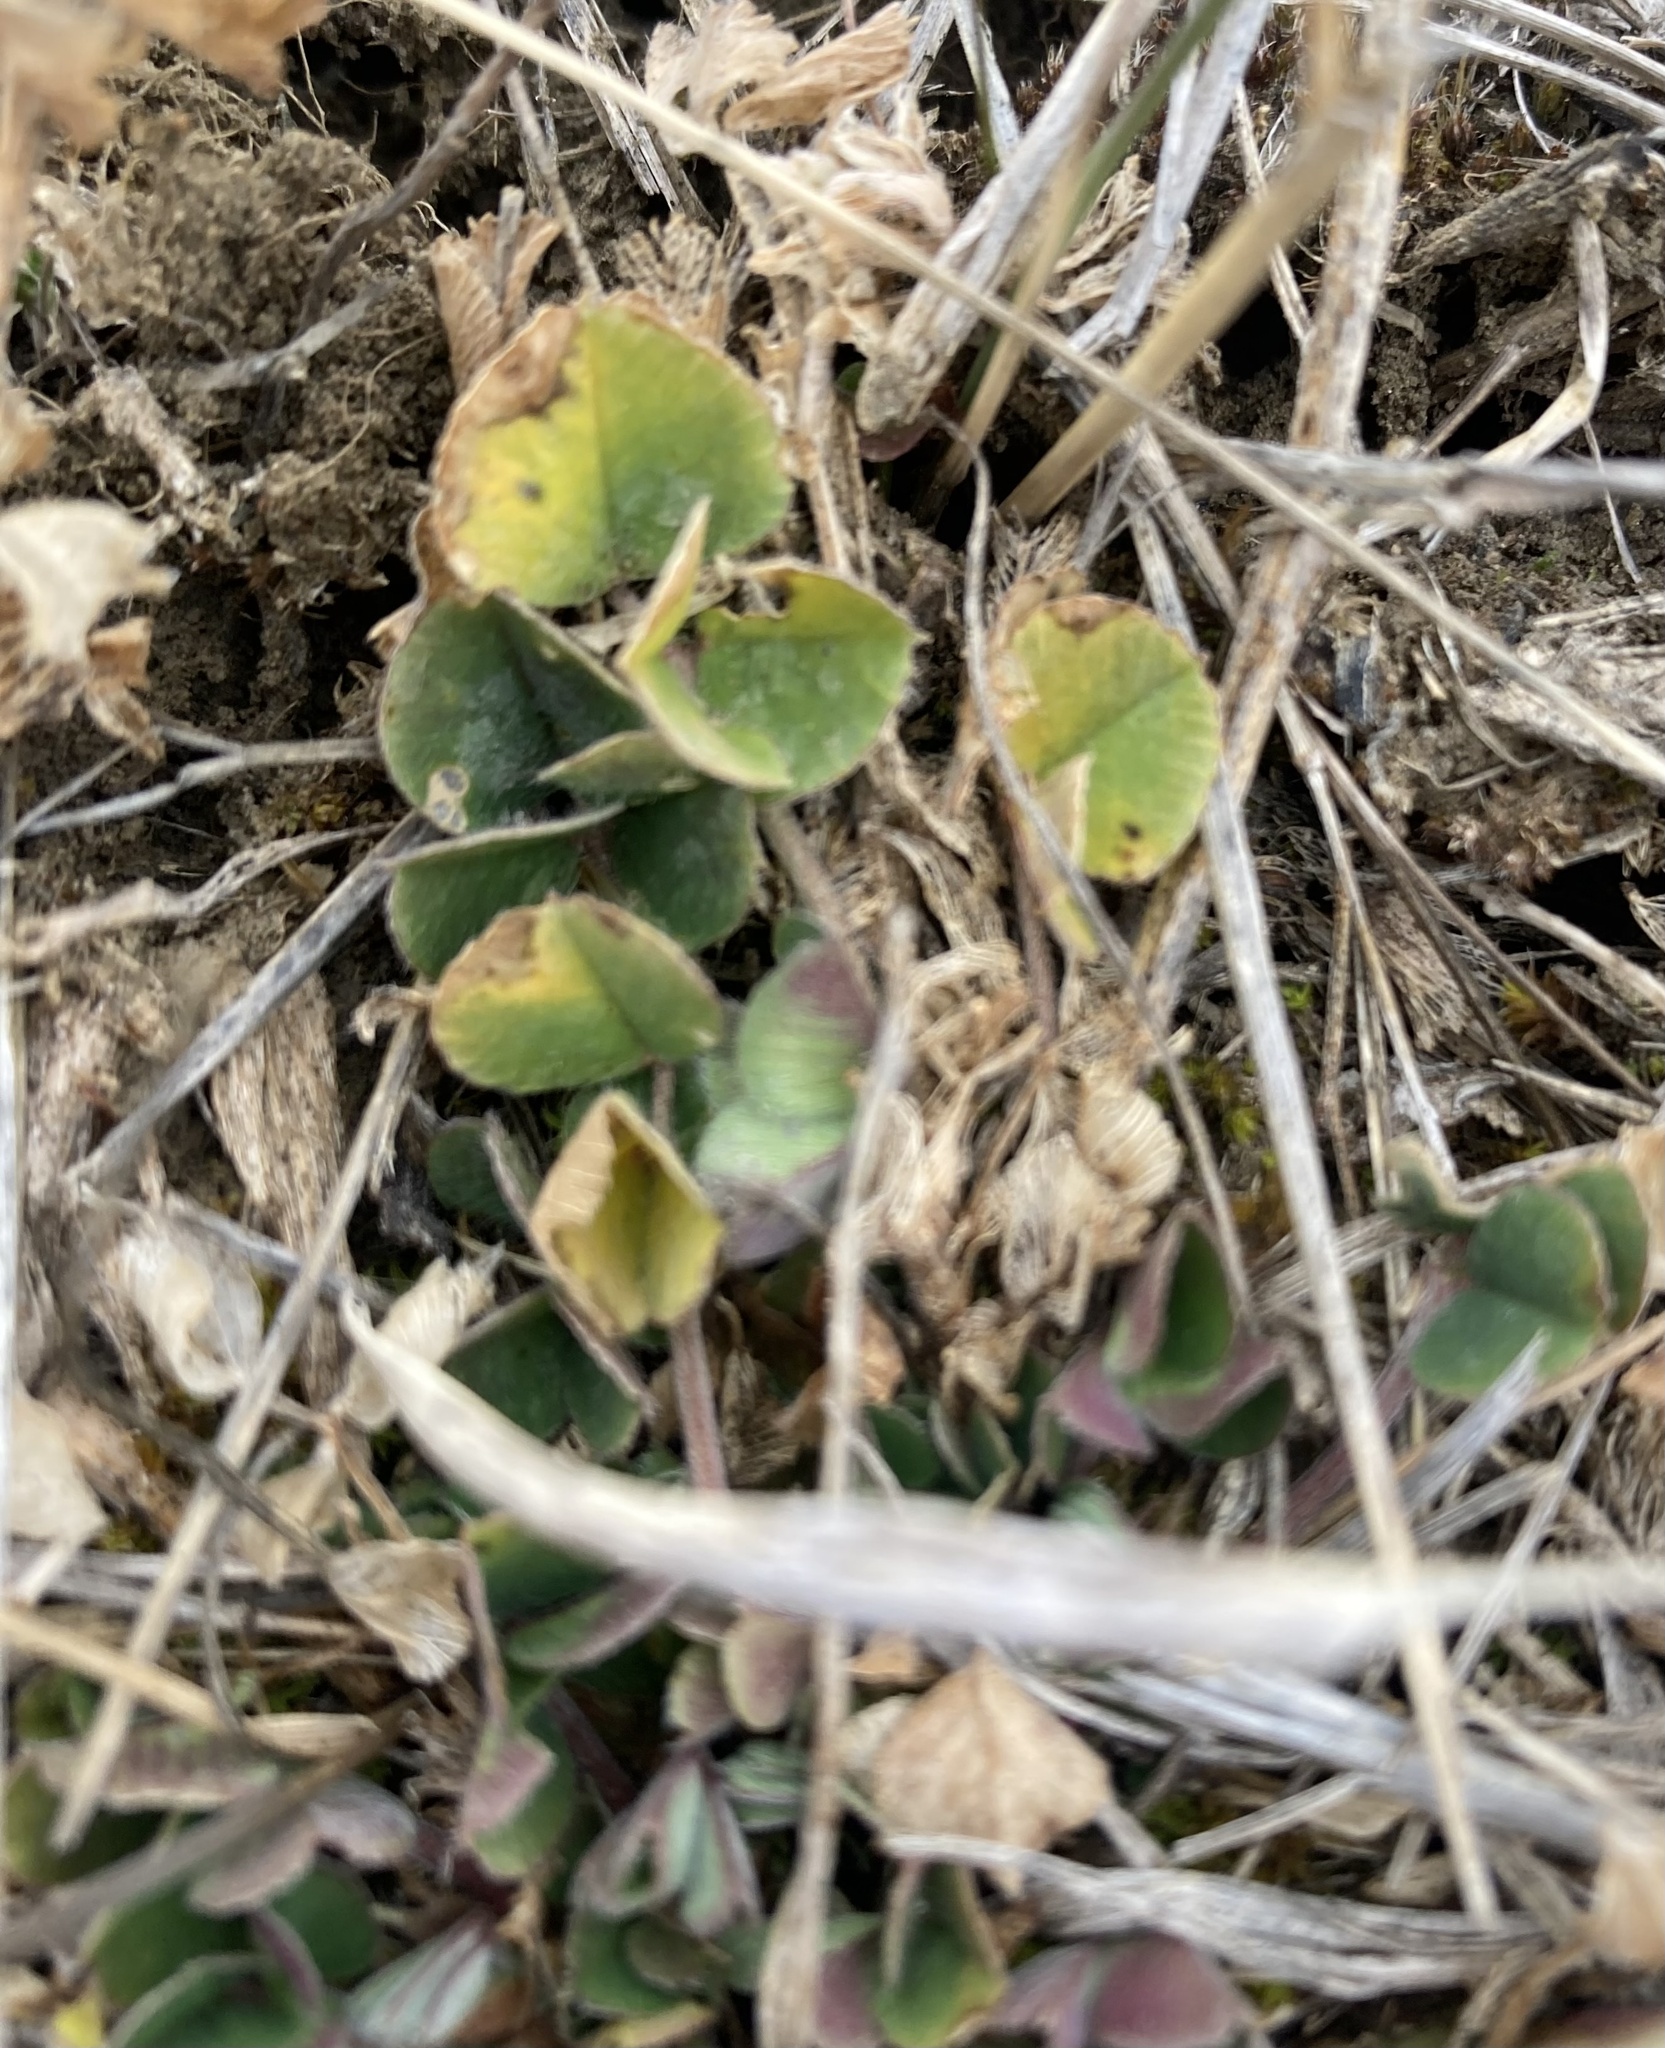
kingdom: Plantae
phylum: Tracheophyta
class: Magnoliopsida
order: Fabales
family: Fabaceae
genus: Medicago
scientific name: Medicago lupulina
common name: Black medick
